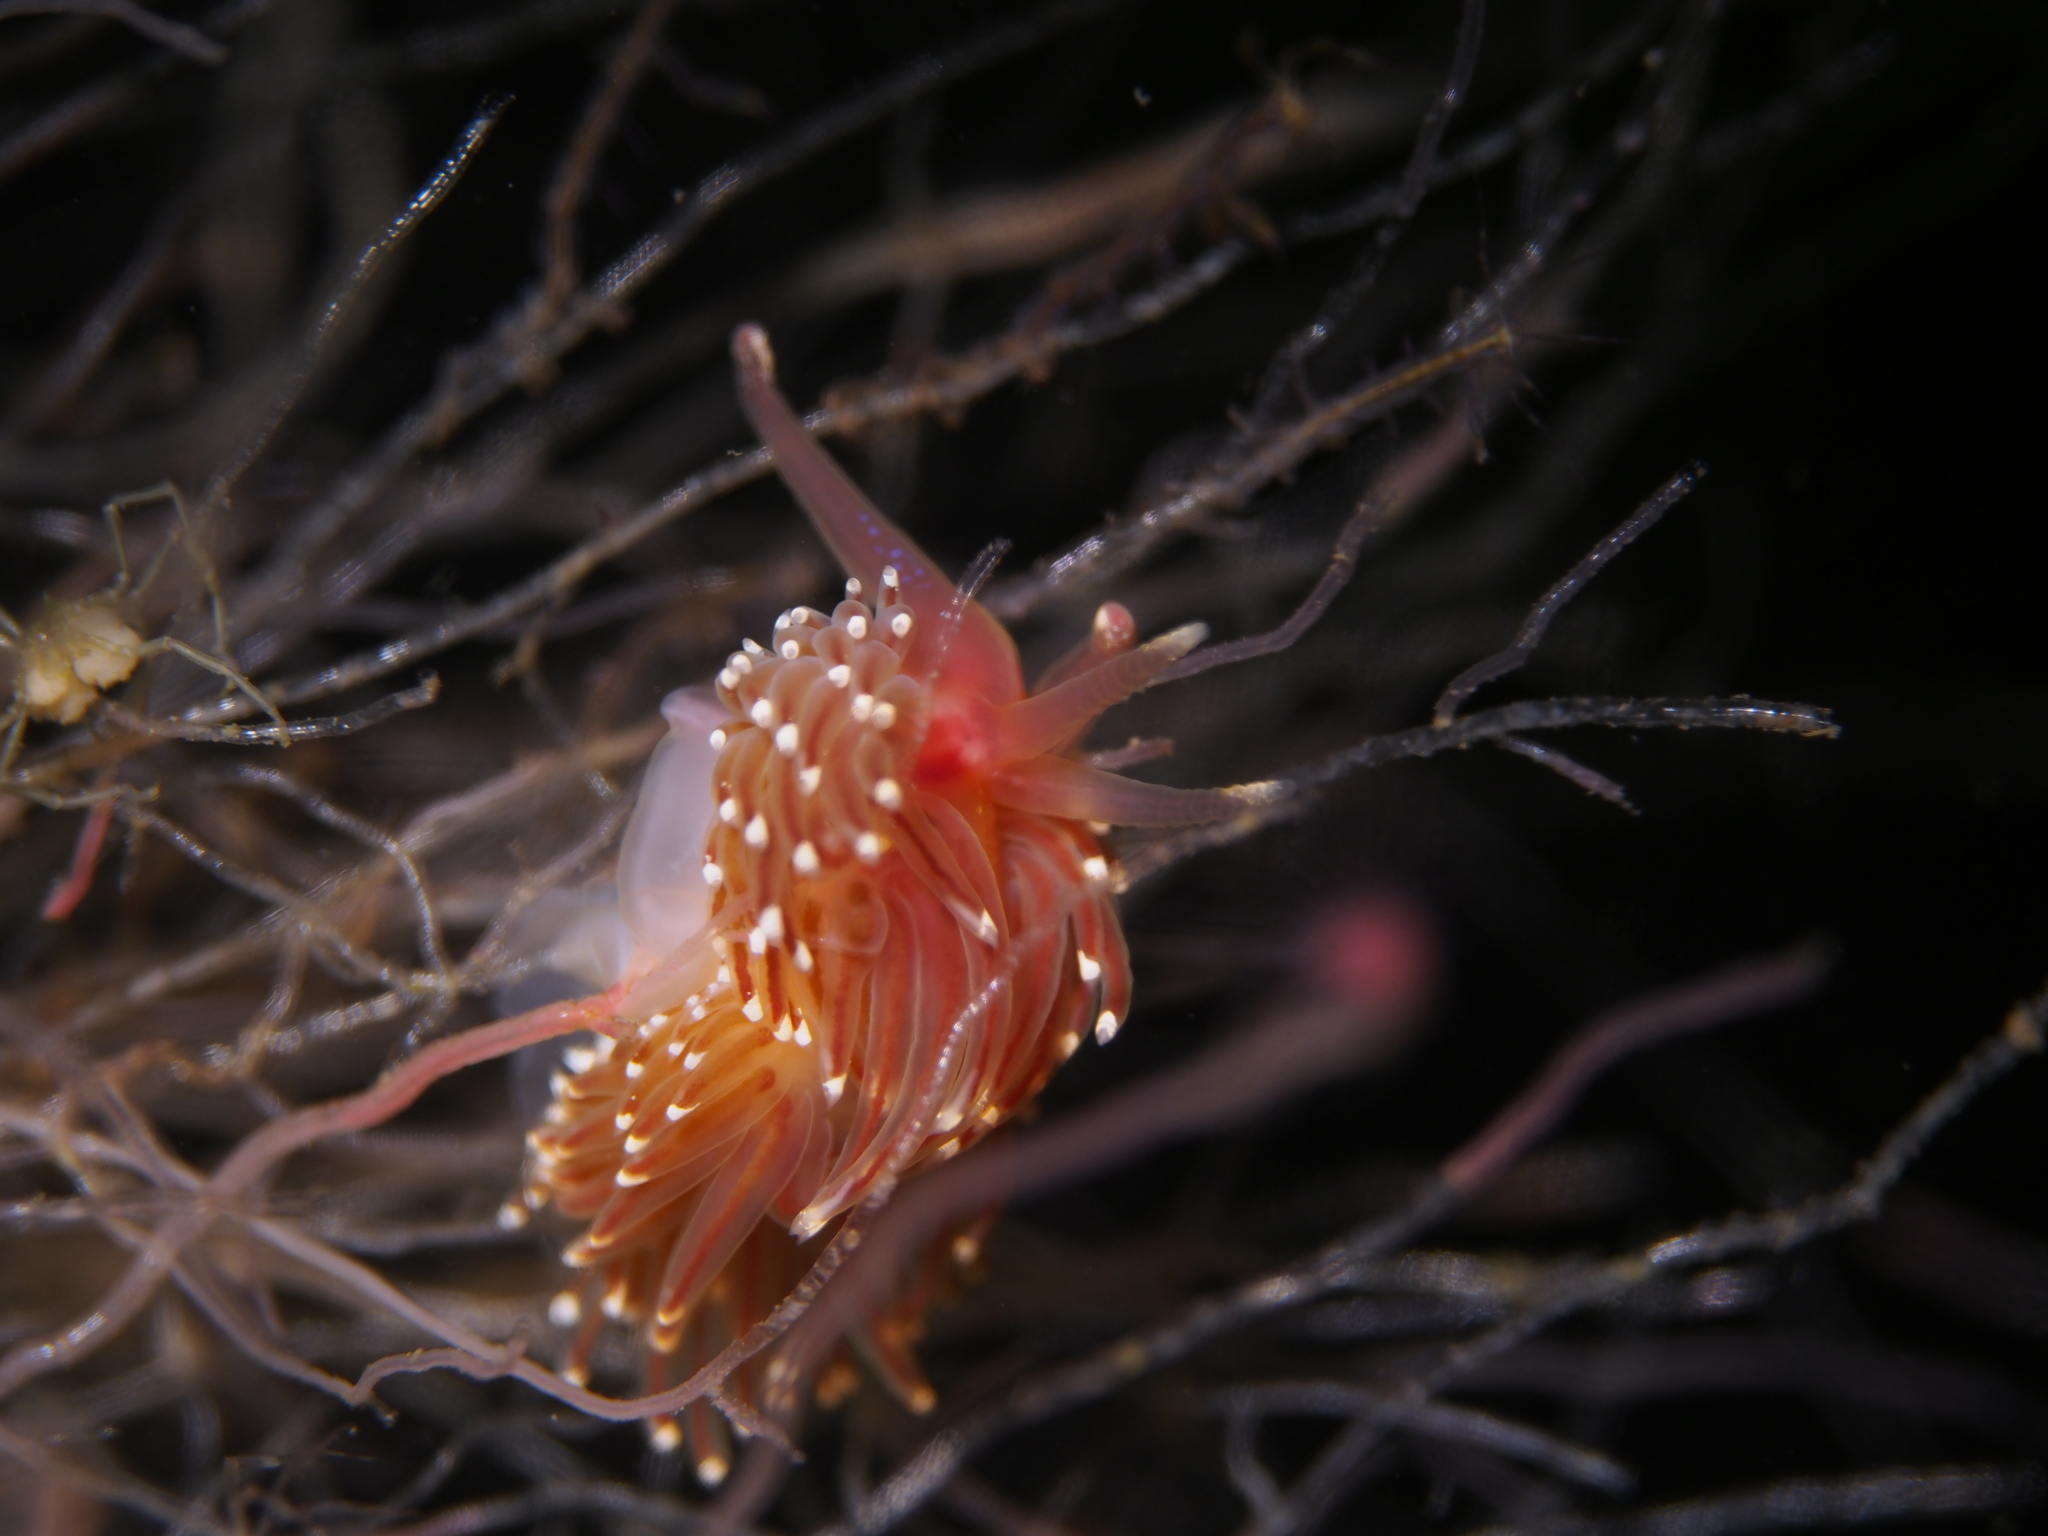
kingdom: Animalia
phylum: Mollusca
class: Gastropoda
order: Nudibranchia
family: Facelinidae
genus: Facelina
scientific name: Facelina bostoniensis
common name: Boston facelina
